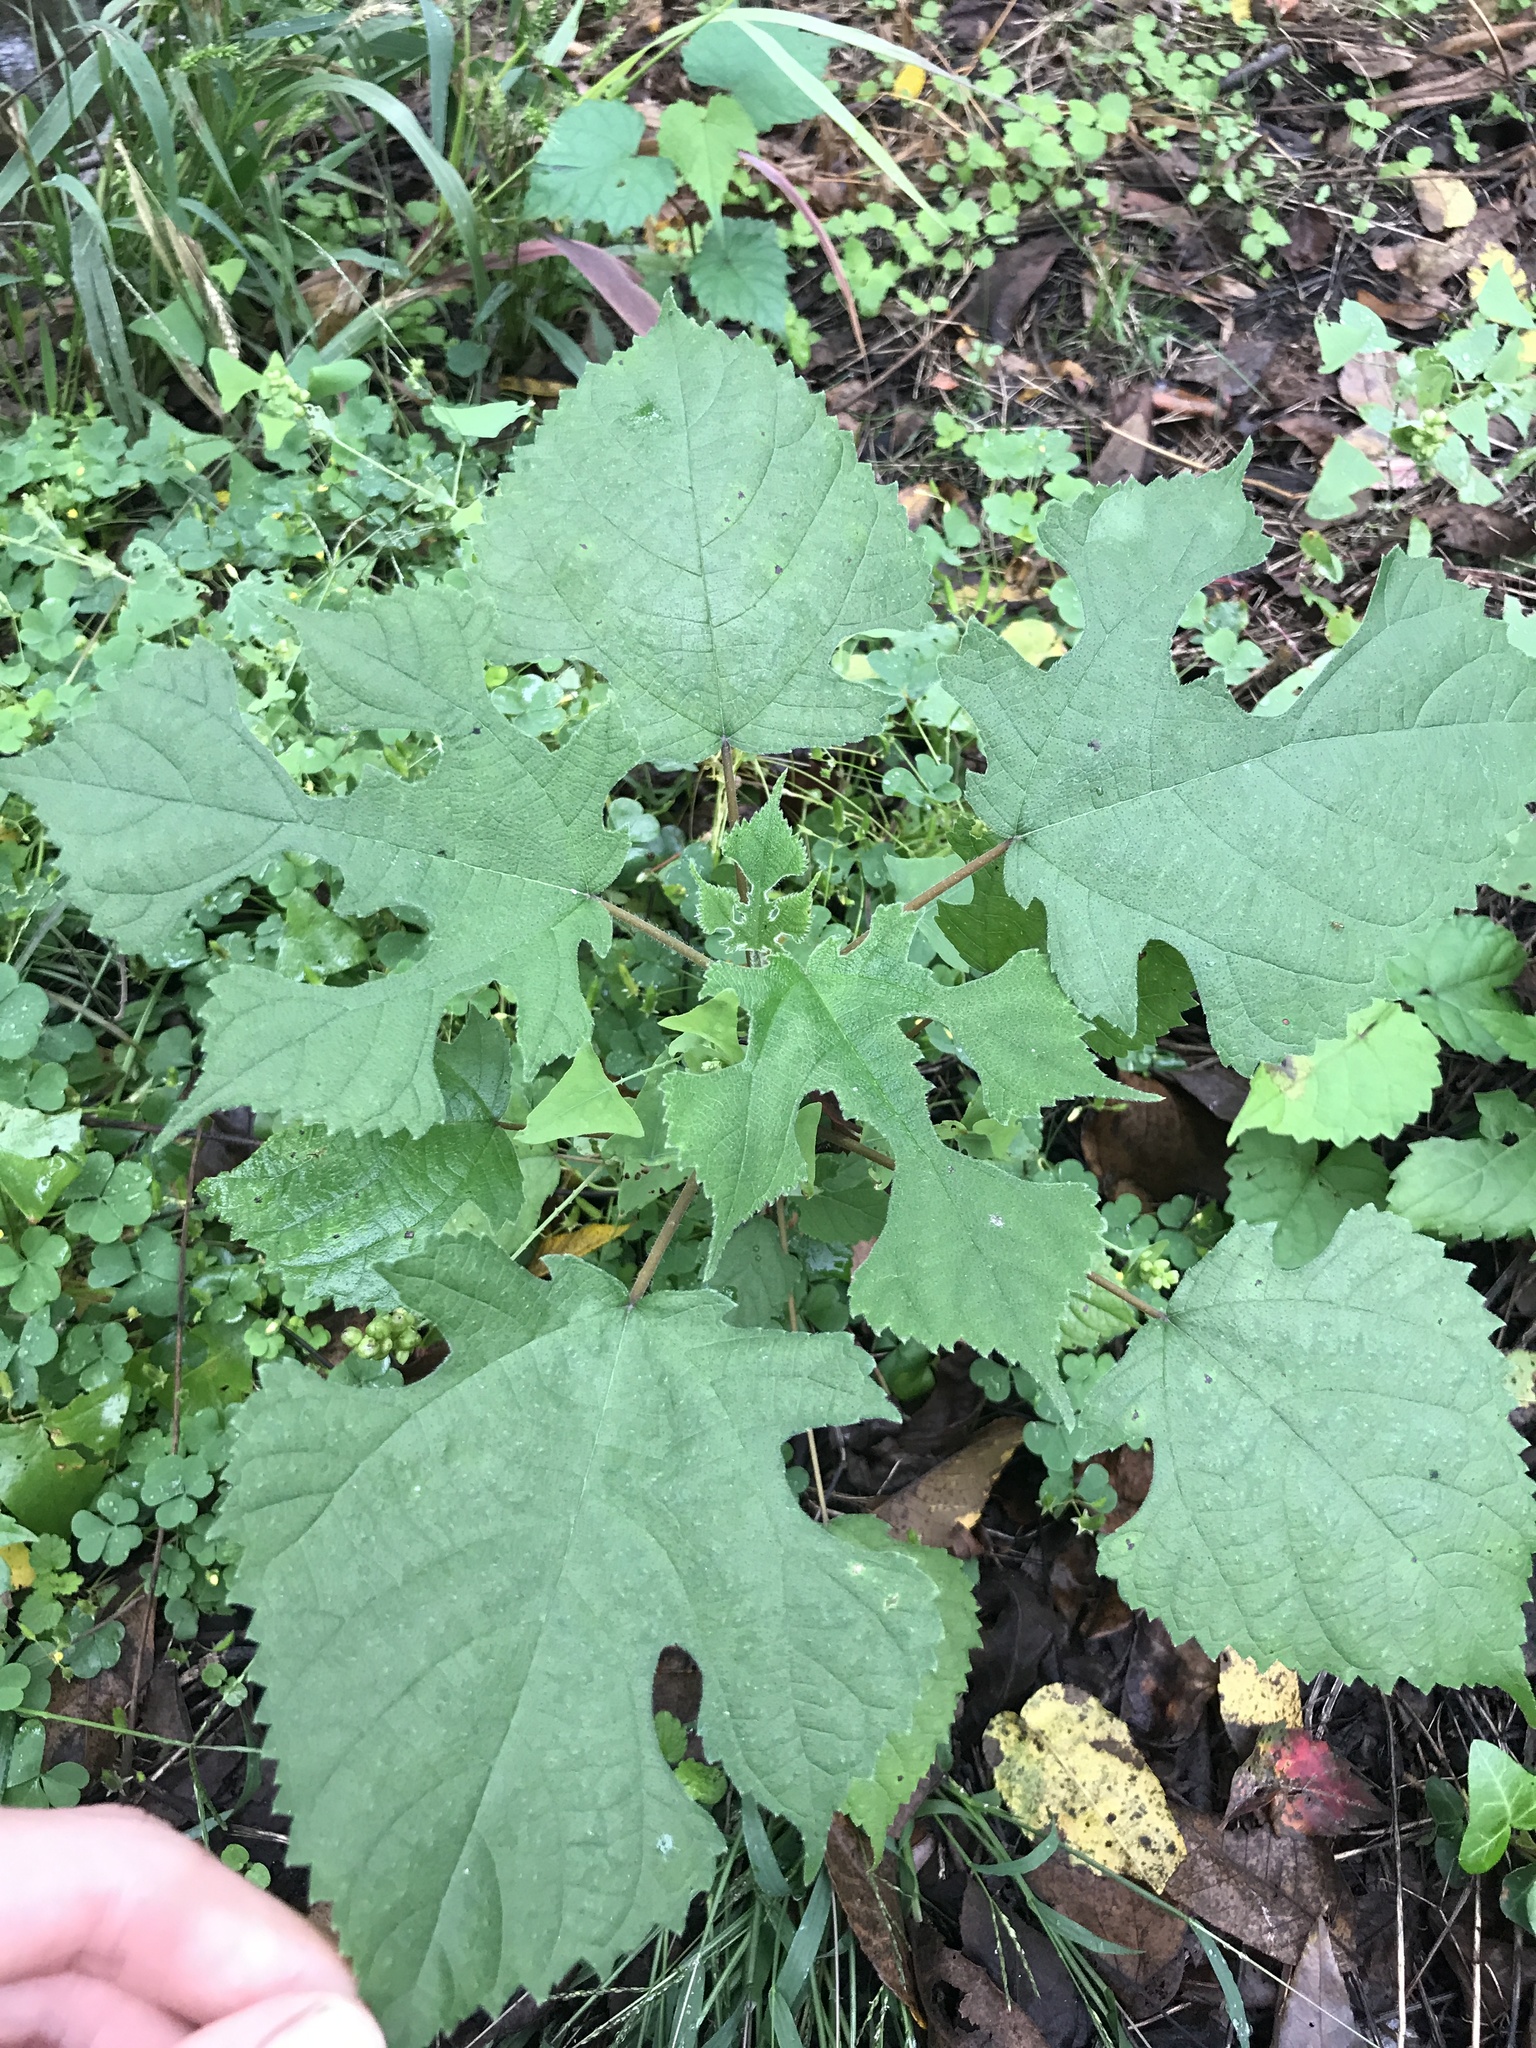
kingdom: Plantae
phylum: Tracheophyta
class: Magnoliopsida
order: Rosales
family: Moraceae
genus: Broussonetia
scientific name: Broussonetia papyrifera
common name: Paper mulberry
